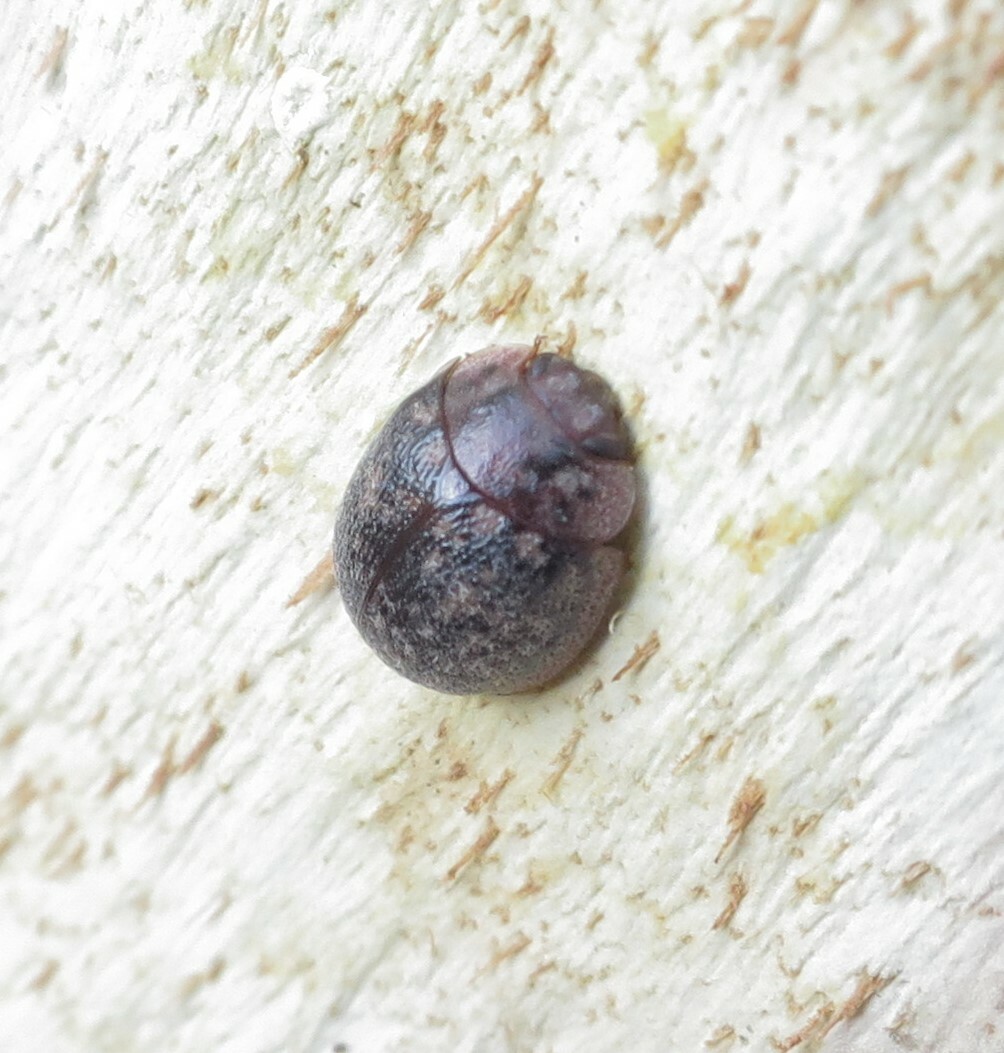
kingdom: Animalia
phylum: Arthropoda
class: Insecta
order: Coleoptera
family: Chrysomelidae
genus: Trachymela
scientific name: Trachymela sloanei
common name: Australian tortoise beetle
